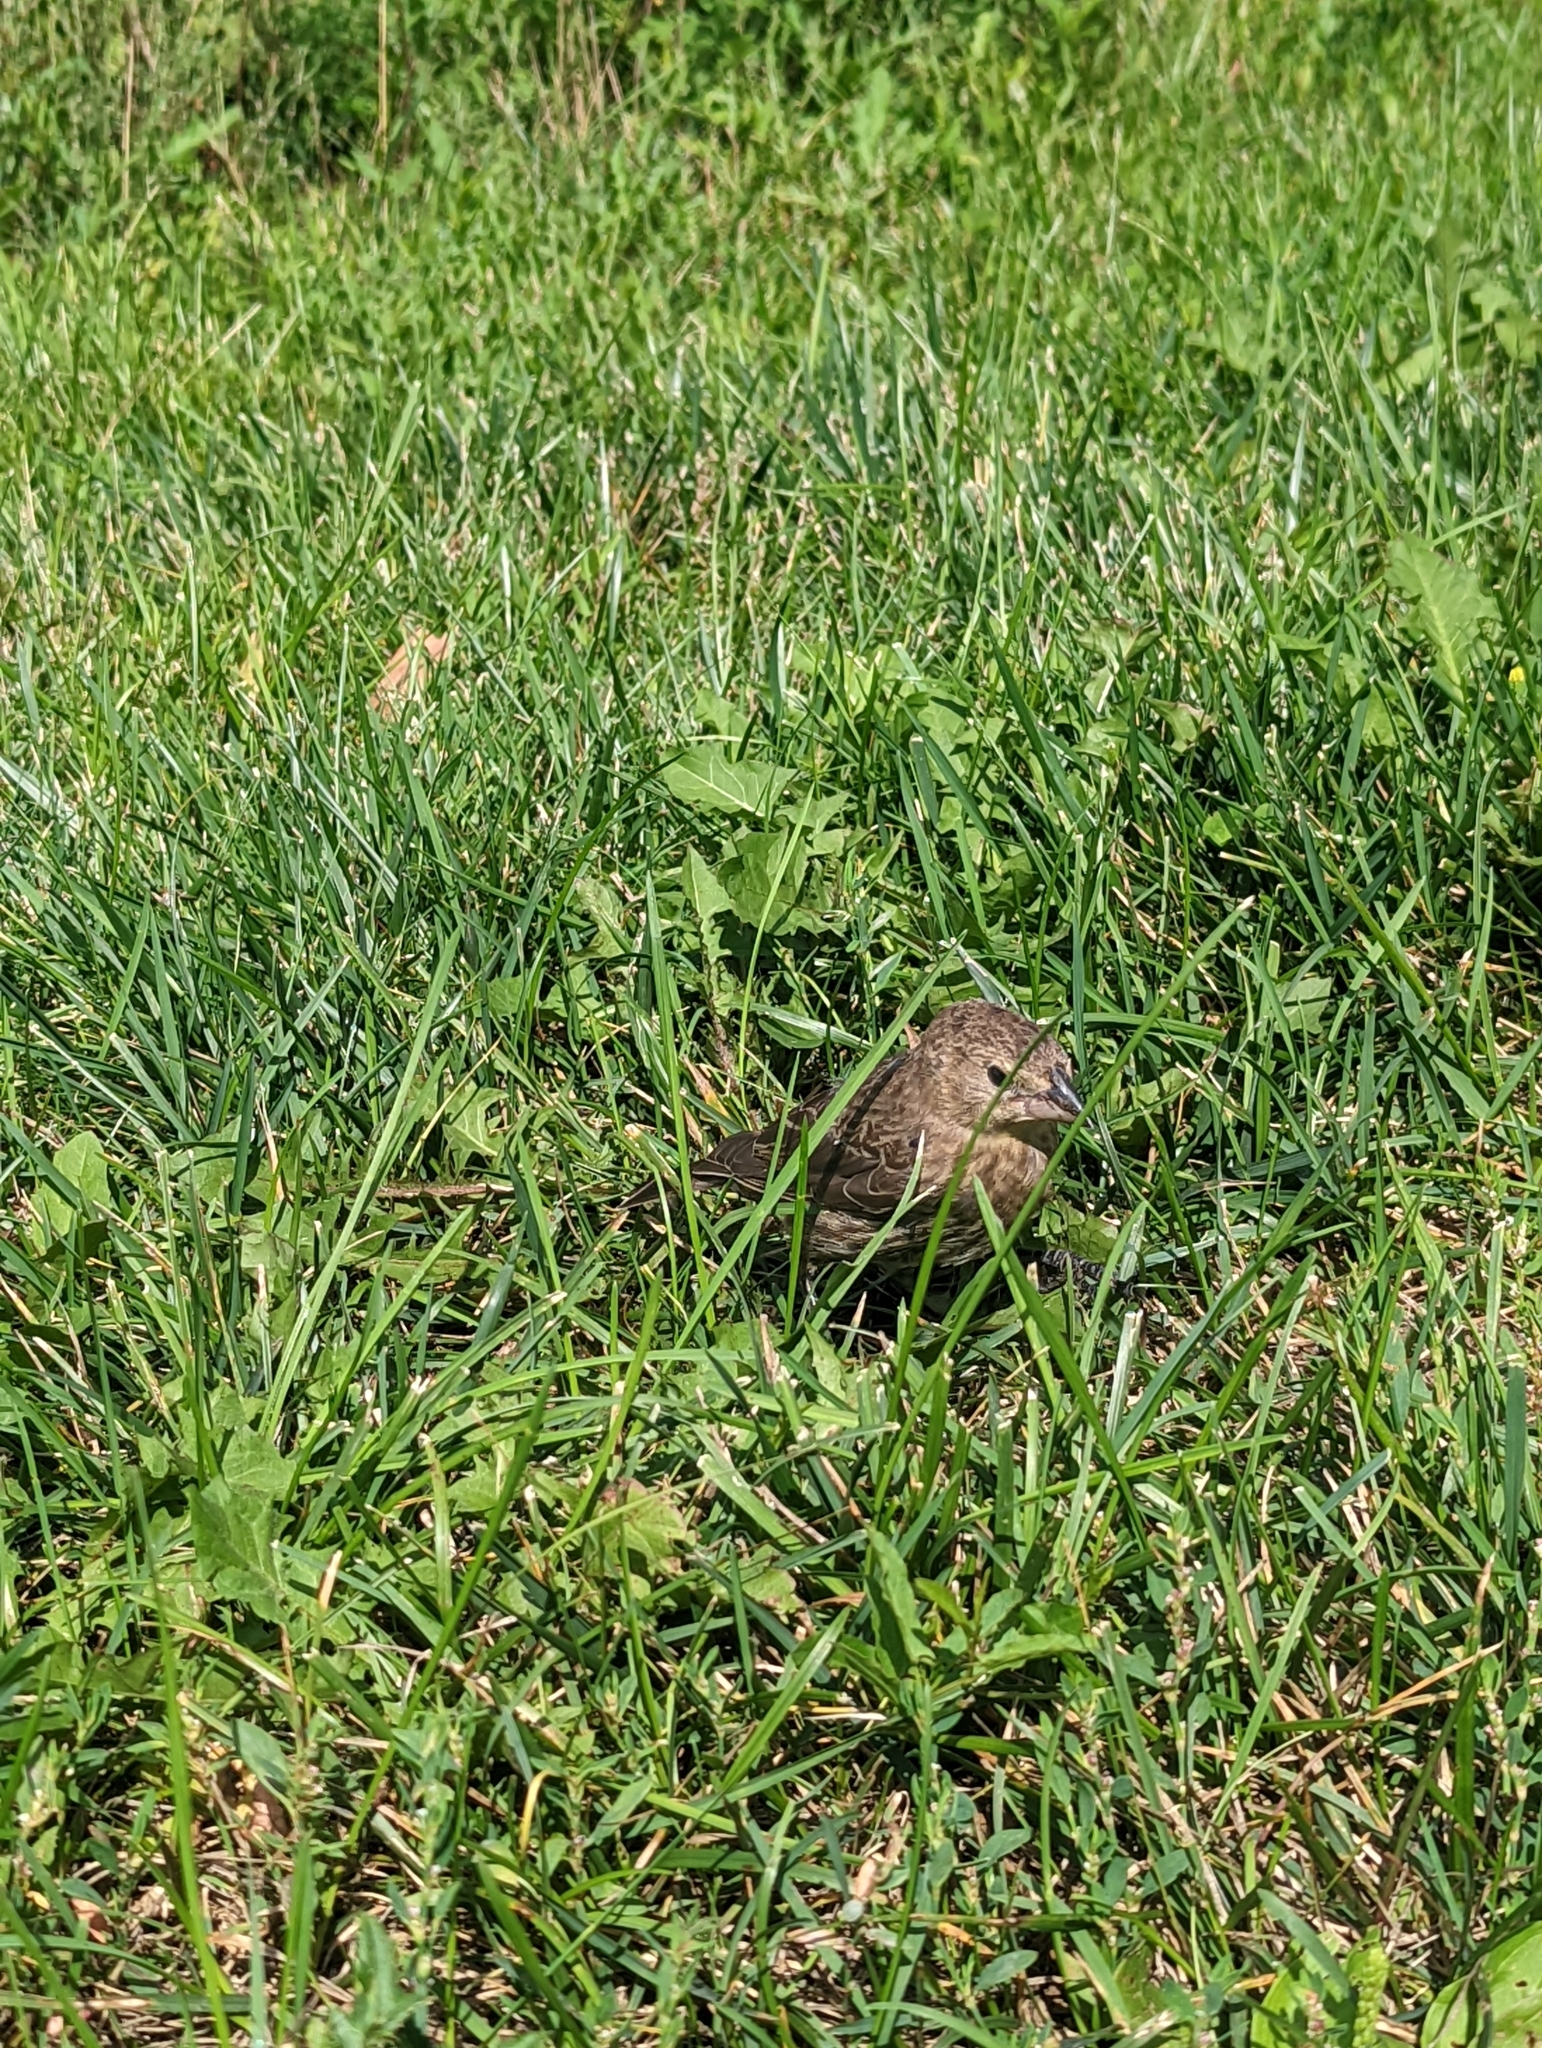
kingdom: Animalia
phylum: Chordata
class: Aves
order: Passeriformes
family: Icteridae
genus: Molothrus
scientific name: Molothrus ater
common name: Brown-headed cowbird
